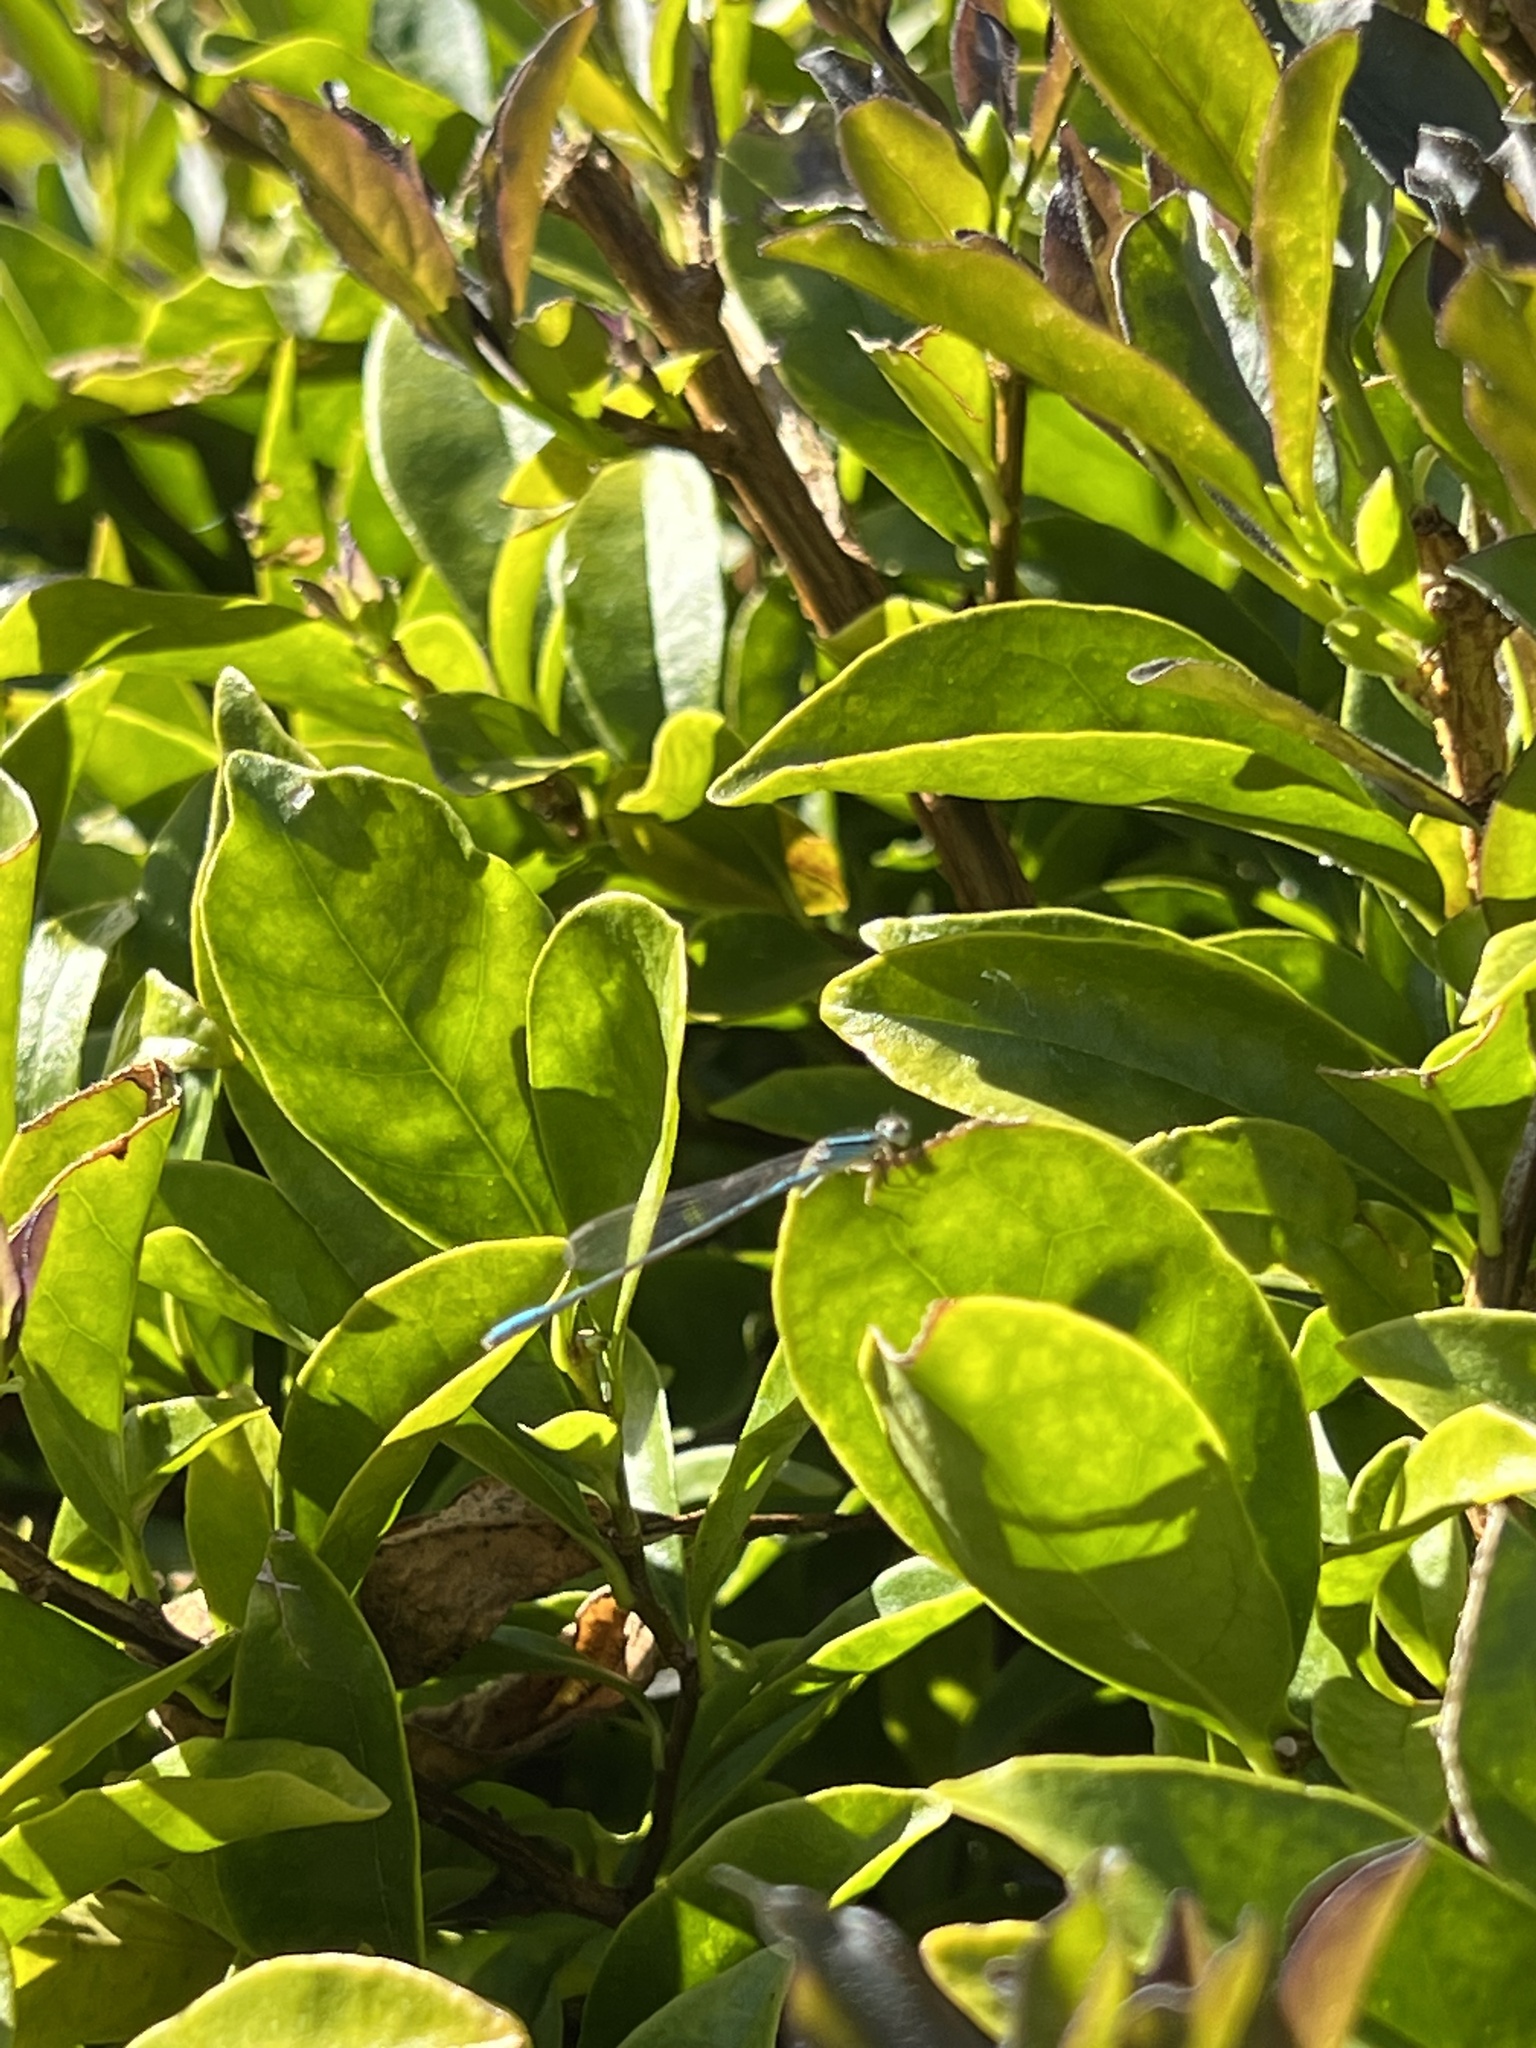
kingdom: Animalia
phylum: Arthropoda
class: Insecta
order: Odonata
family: Coenagrionidae
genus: Africallagma
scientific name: Africallagma glaucum
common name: Swamp bluet
